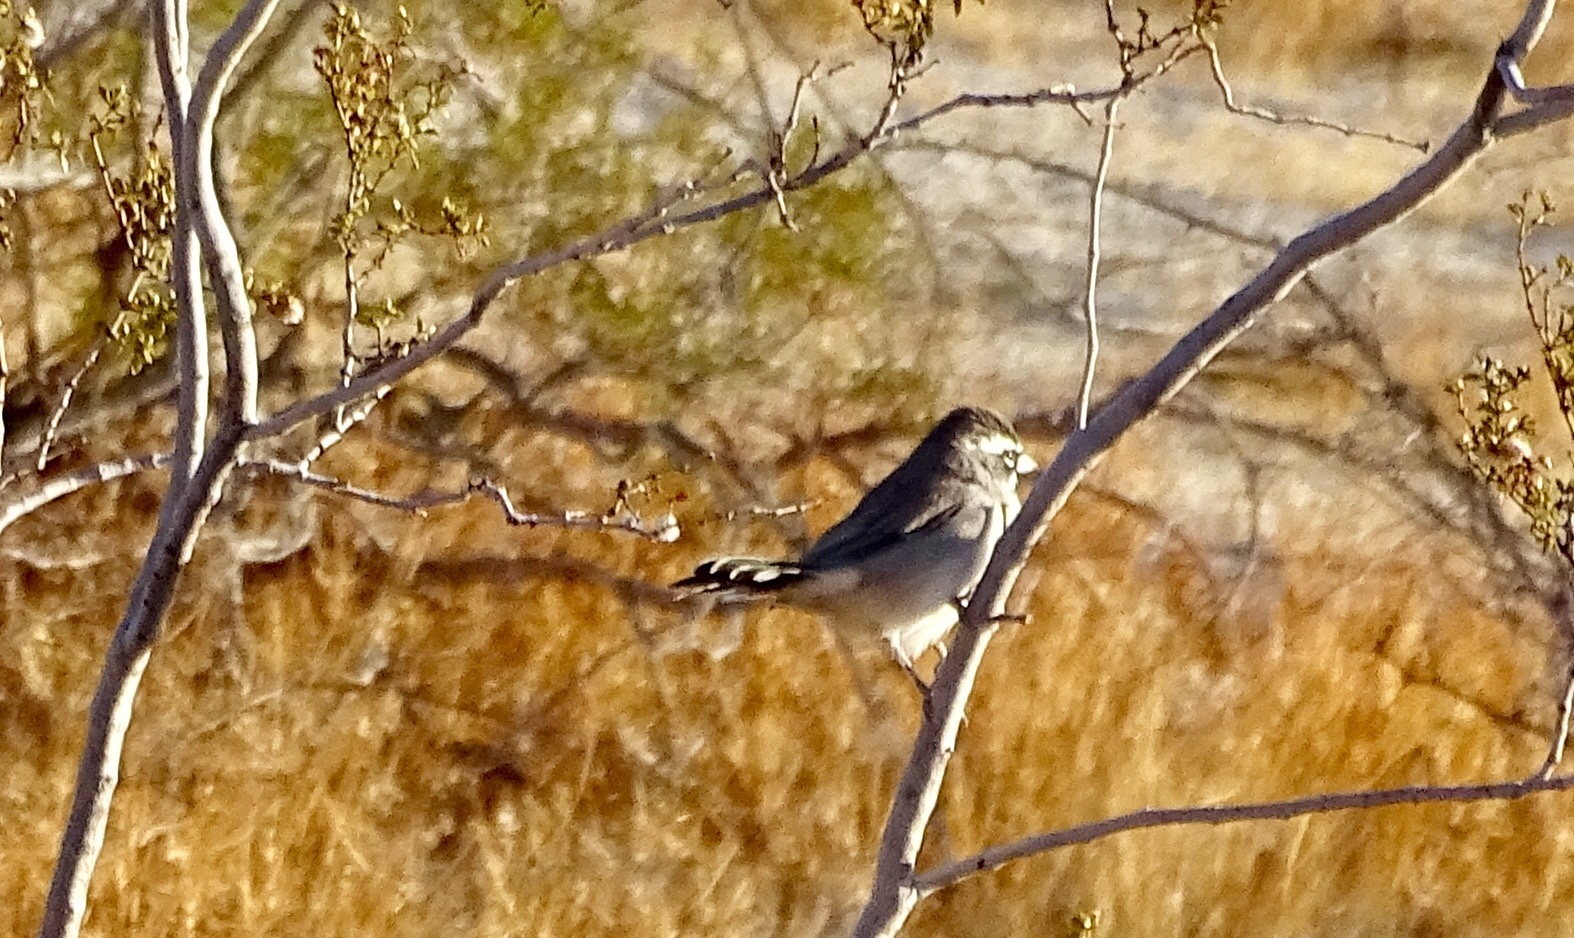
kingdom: Animalia
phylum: Chordata
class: Aves
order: Passeriformes
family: Passerellidae
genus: Amphispiza
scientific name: Amphispiza bilineata
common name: Black-throated sparrow
